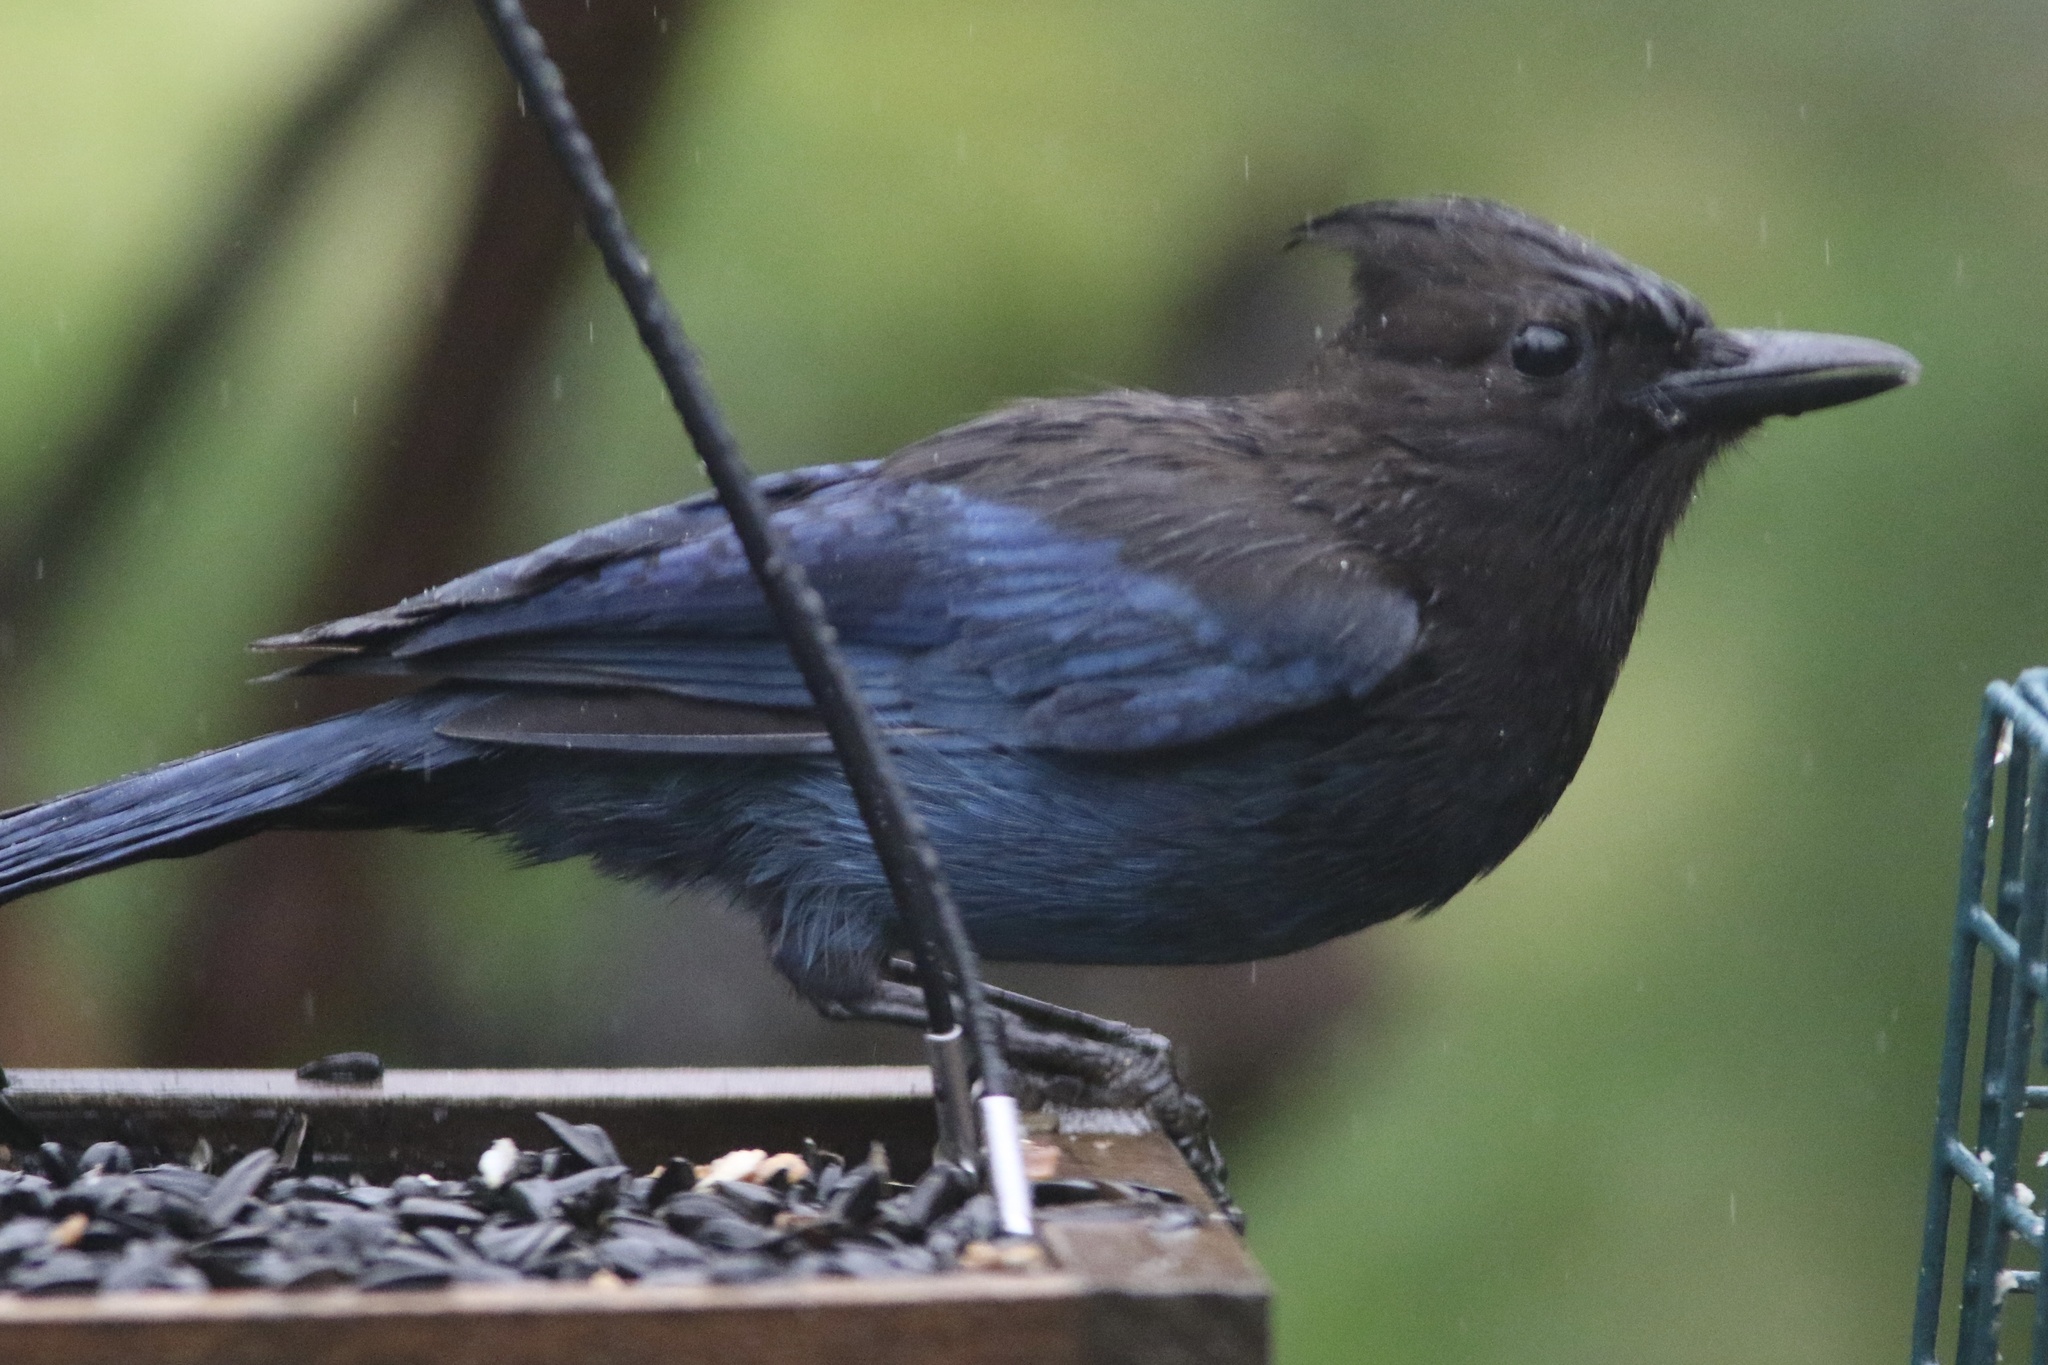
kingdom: Animalia
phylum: Chordata
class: Aves
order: Passeriformes
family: Corvidae
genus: Cyanocitta
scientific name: Cyanocitta stelleri
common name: Steller's jay
